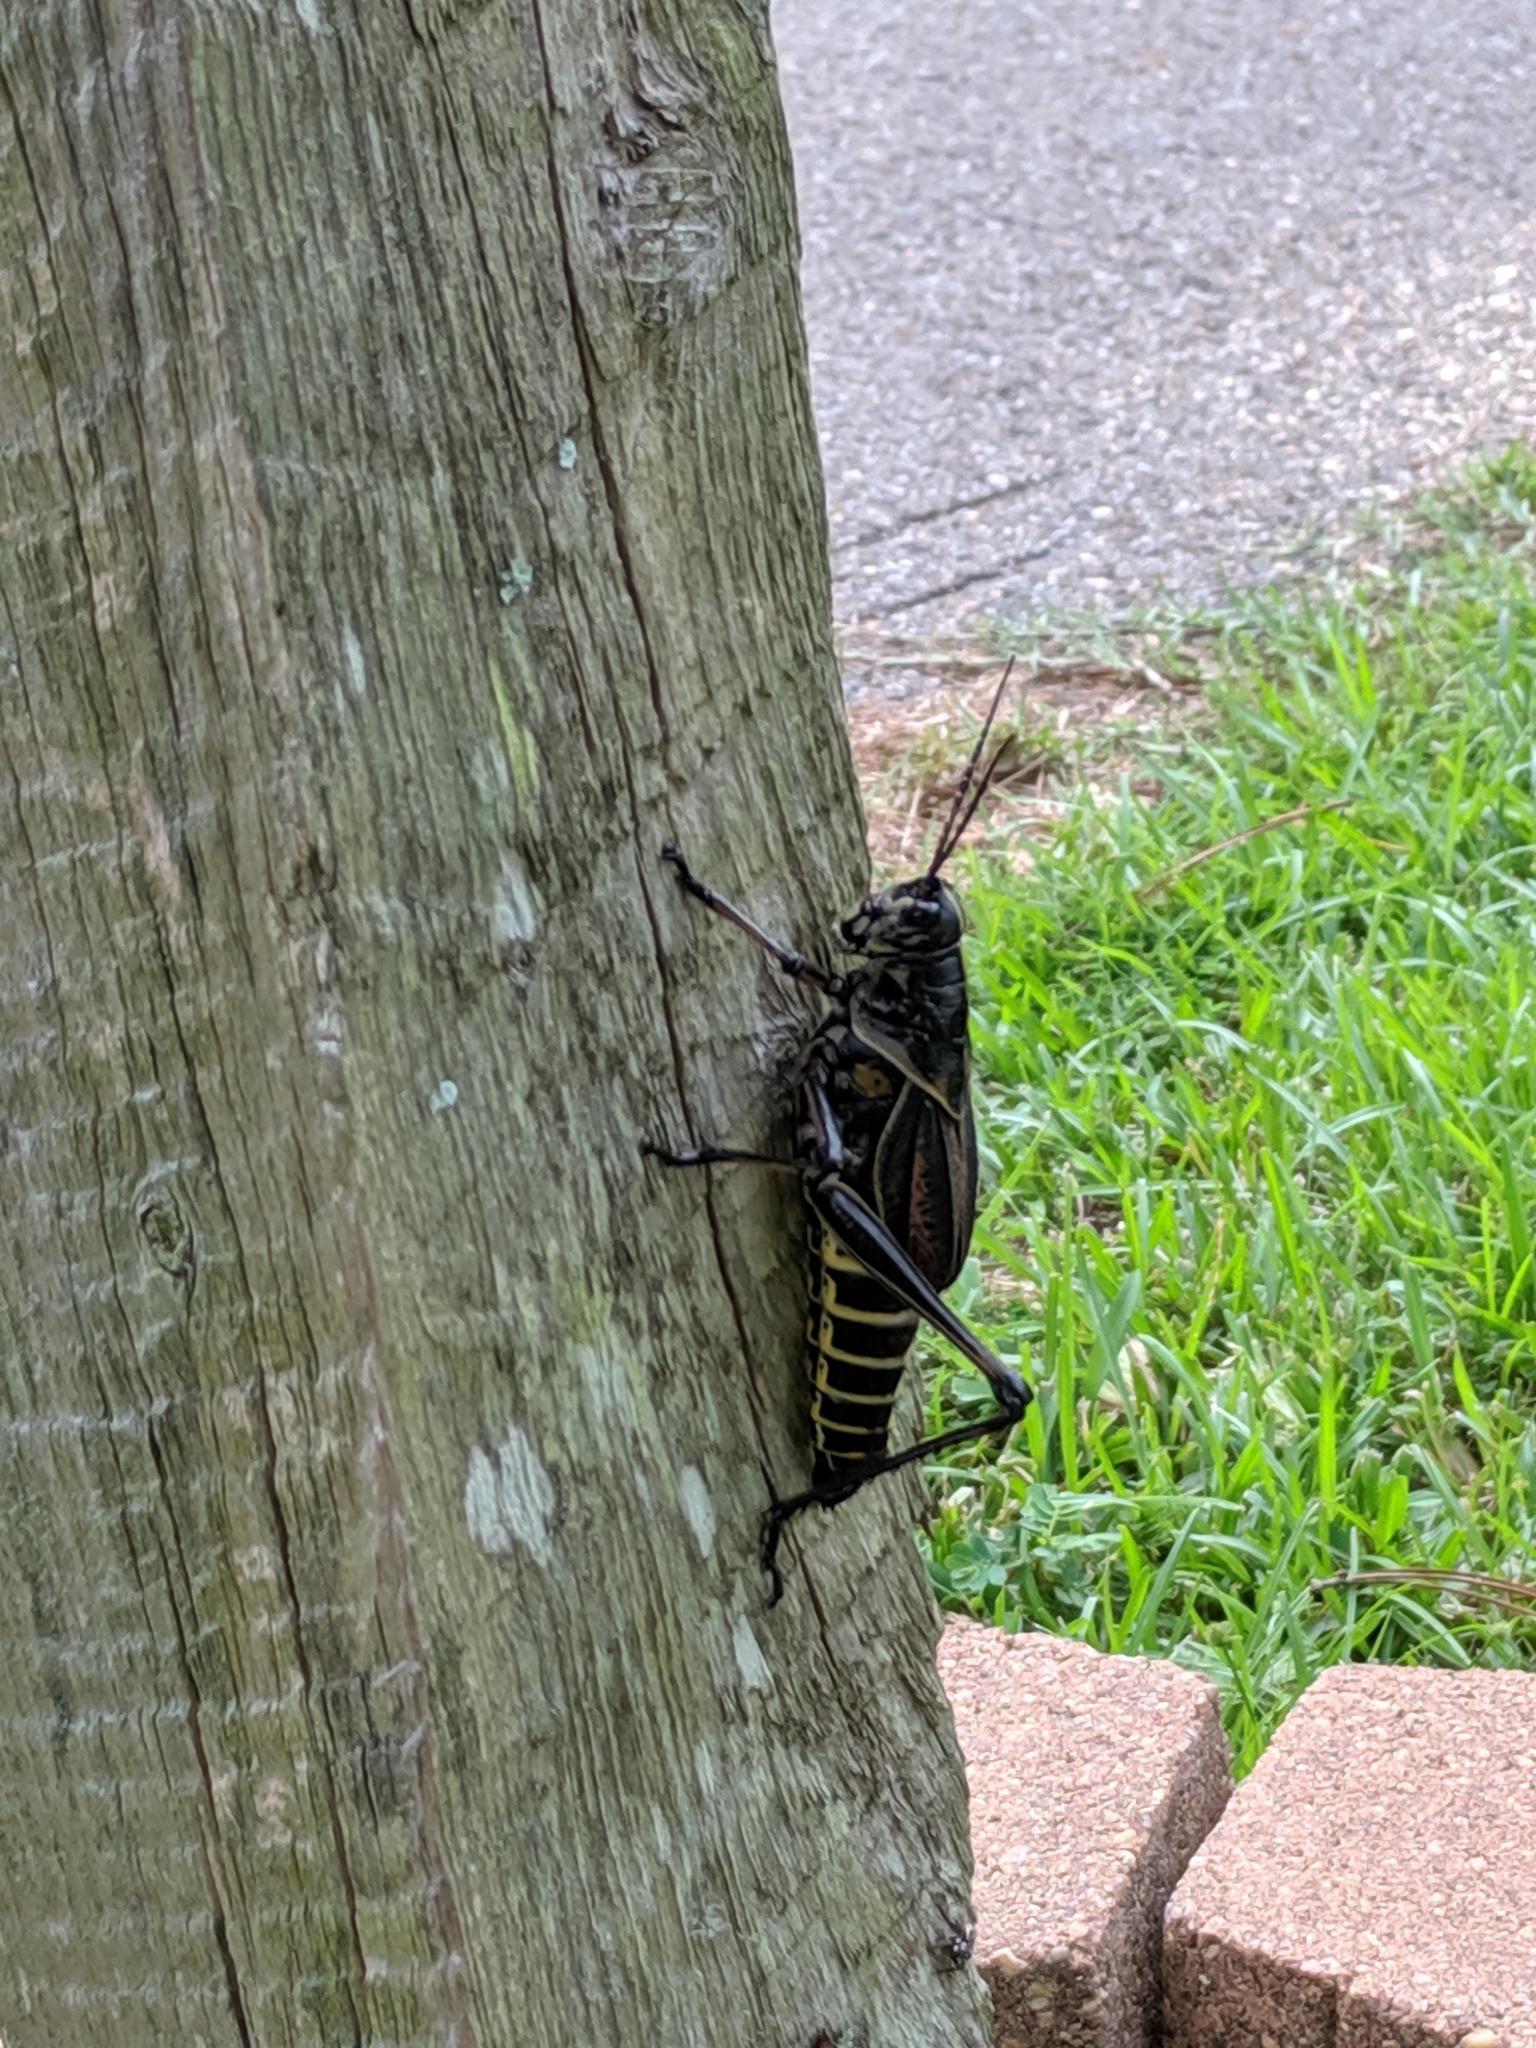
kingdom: Animalia
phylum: Arthropoda
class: Insecta
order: Orthoptera
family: Romaleidae
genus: Romalea
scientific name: Romalea microptera
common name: Eastern lubber grasshopper
